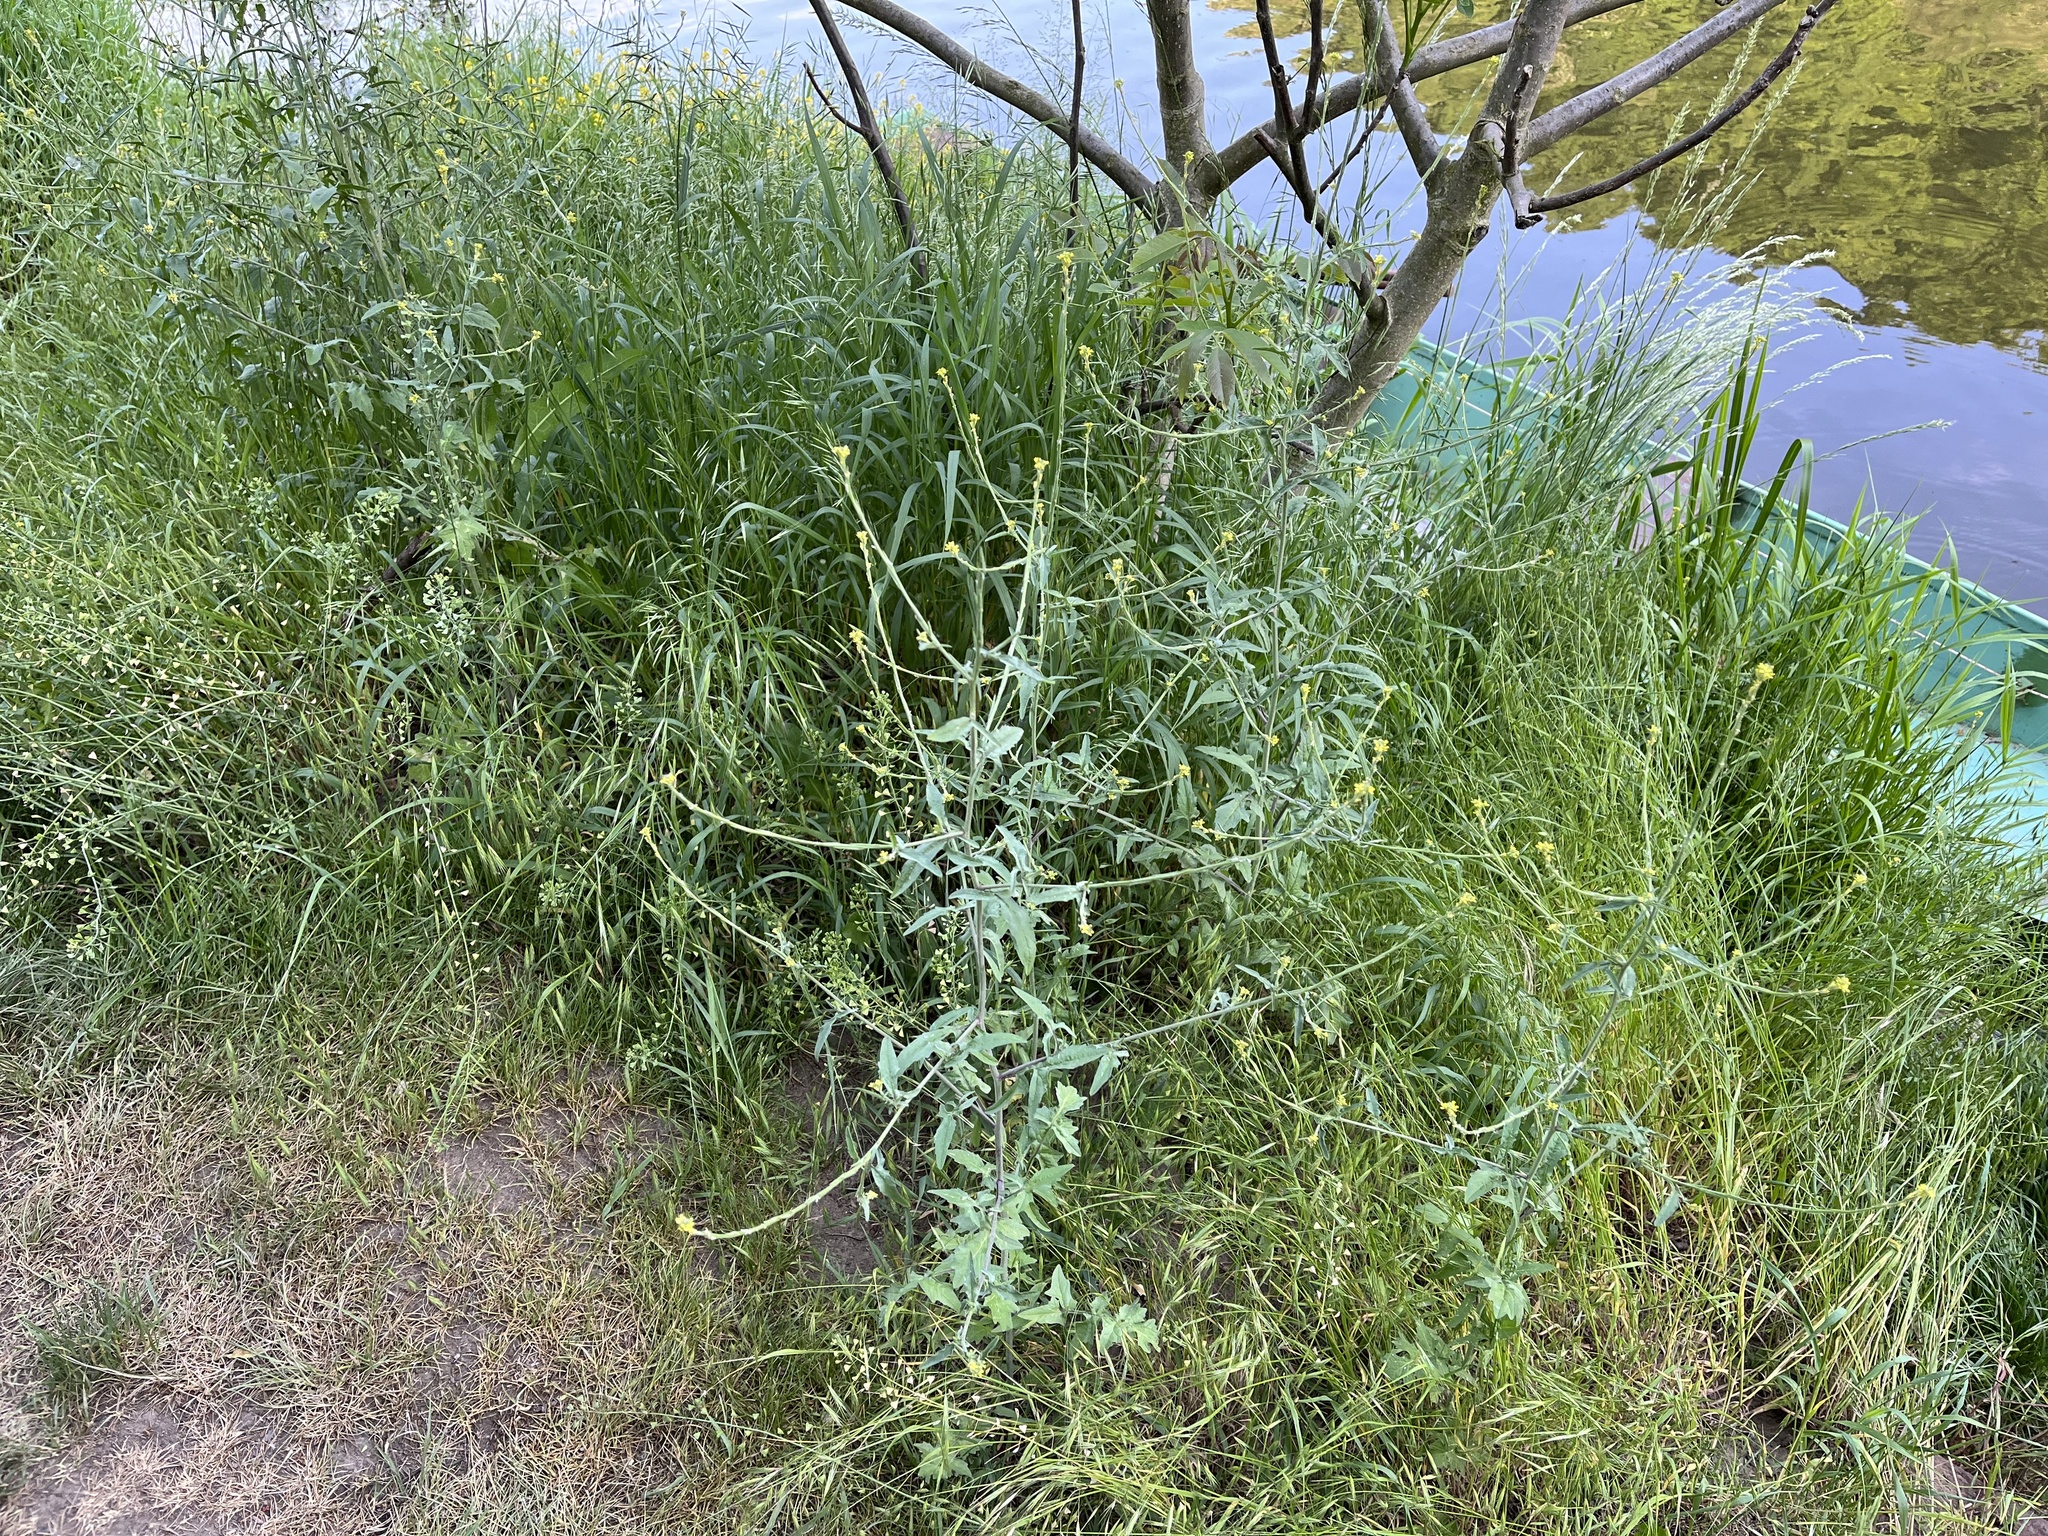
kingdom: Plantae
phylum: Tracheophyta
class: Magnoliopsida
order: Brassicales
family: Brassicaceae
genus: Sisymbrium
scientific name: Sisymbrium officinale
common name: Hedge mustard
